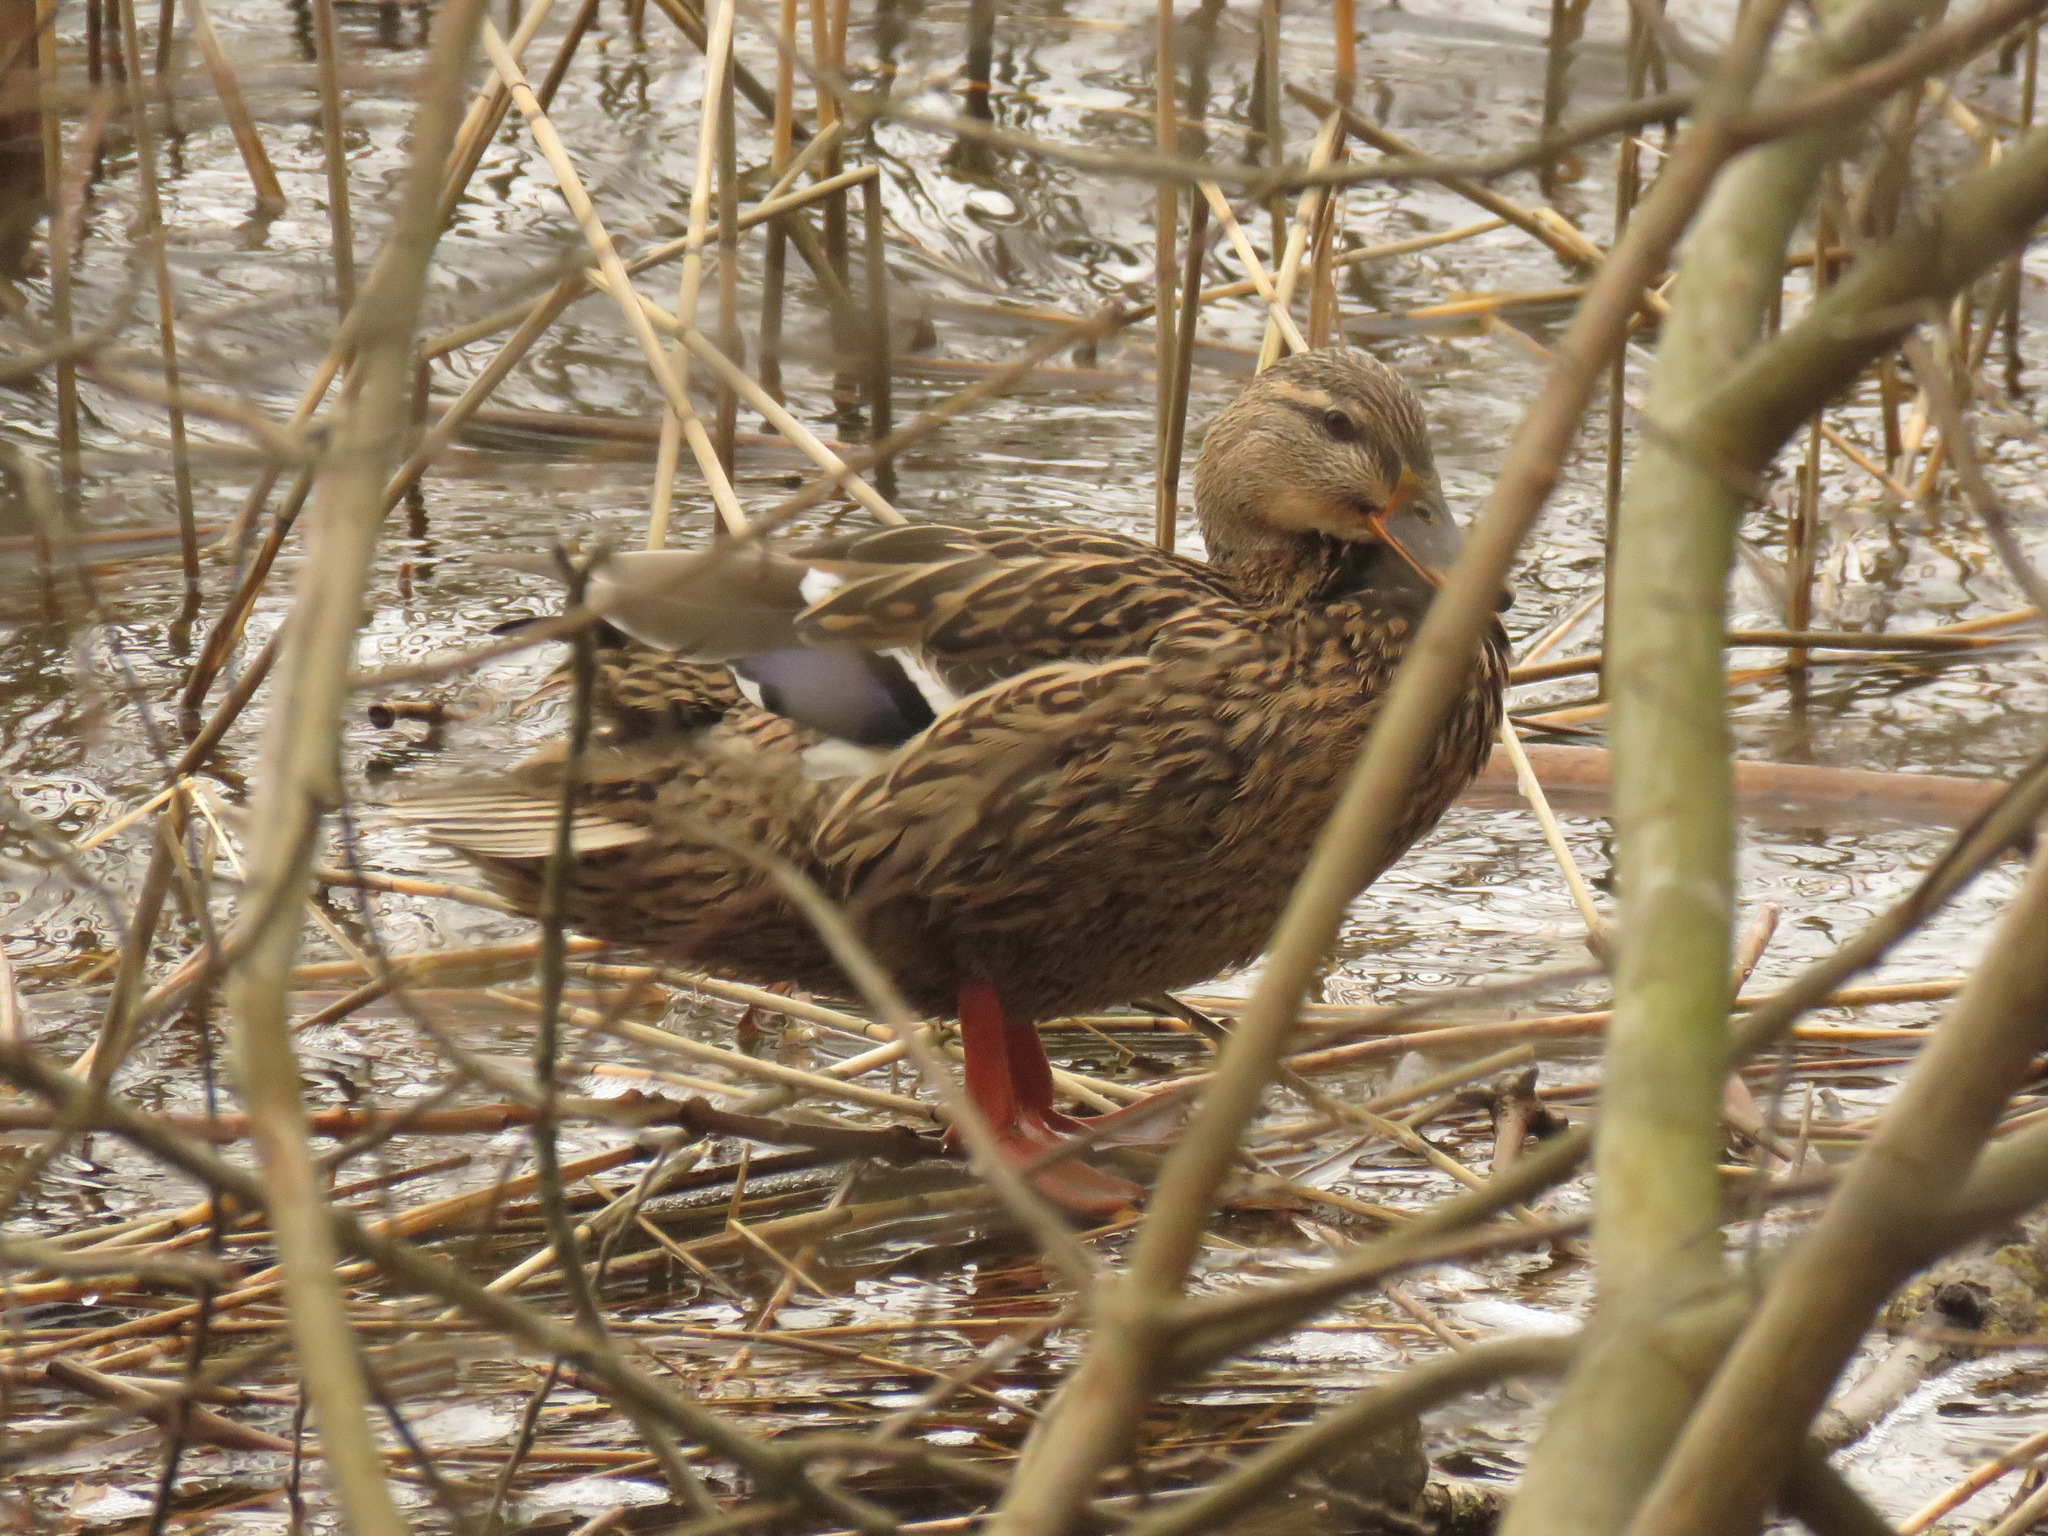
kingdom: Animalia
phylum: Chordata
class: Aves
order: Anseriformes
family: Anatidae
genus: Anas
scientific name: Anas platyrhynchos
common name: Mallard
